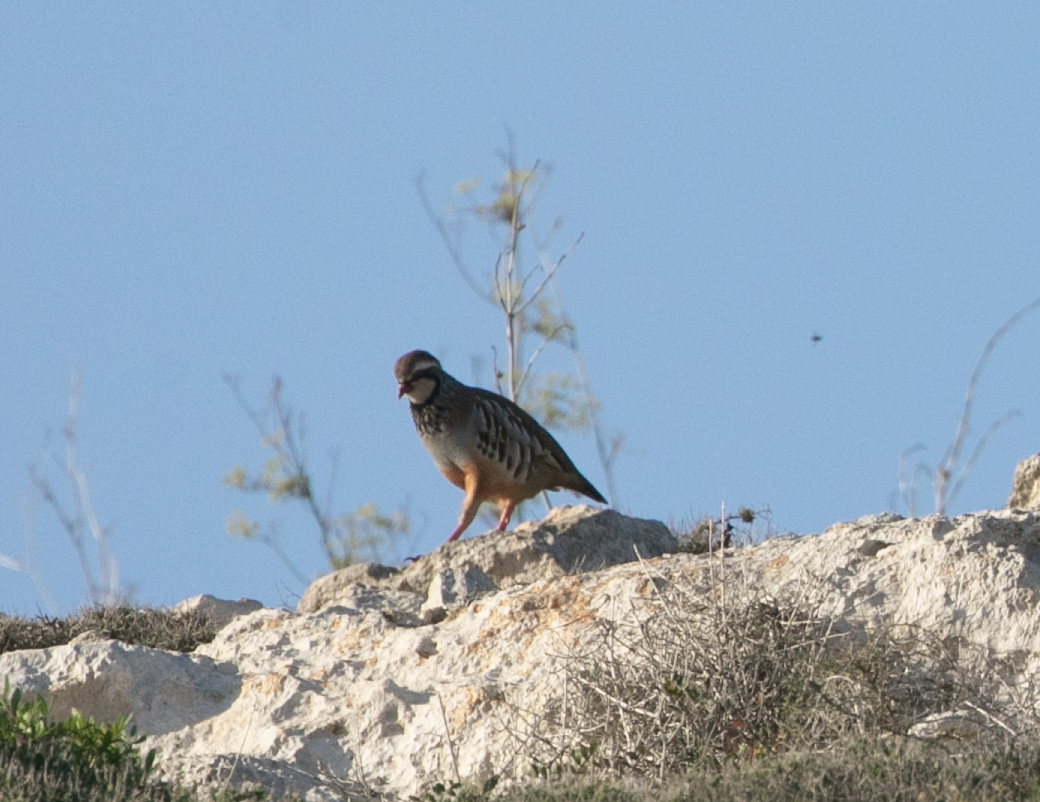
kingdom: Animalia
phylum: Chordata
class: Aves
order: Galliformes
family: Phasianidae
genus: Alectoris
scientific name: Alectoris rufa
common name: Red-legged partridge
